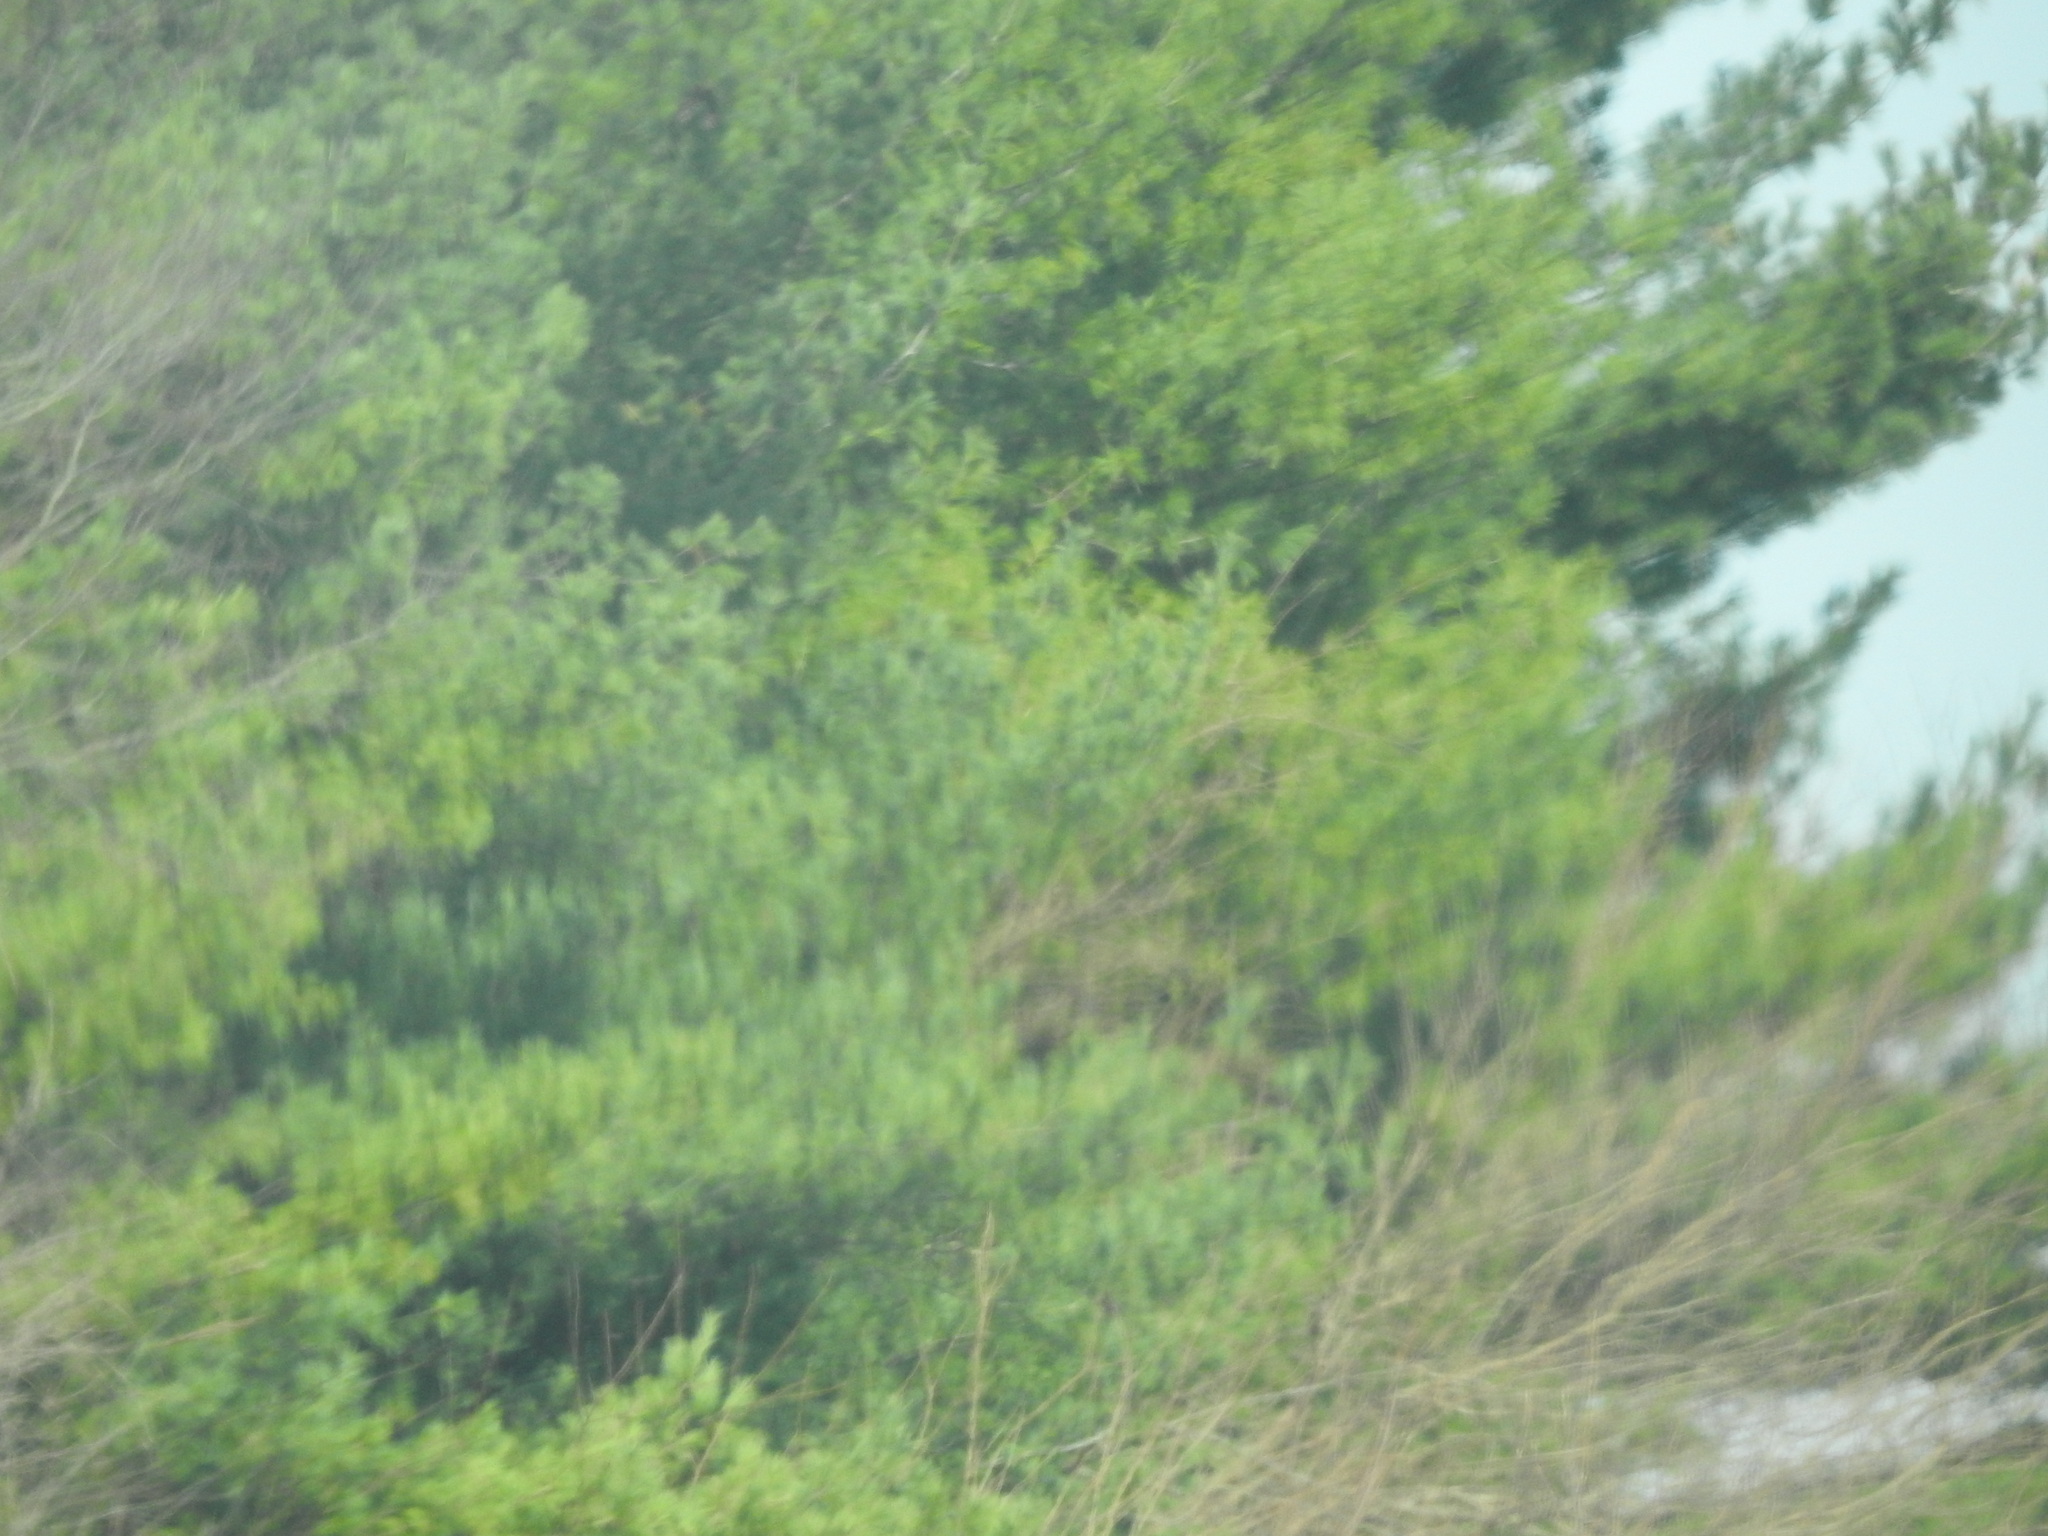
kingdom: Plantae
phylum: Tracheophyta
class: Pinopsida
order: Pinales
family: Pinaceae
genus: Pinus
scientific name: Pinus strobus
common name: Weymouth pine
